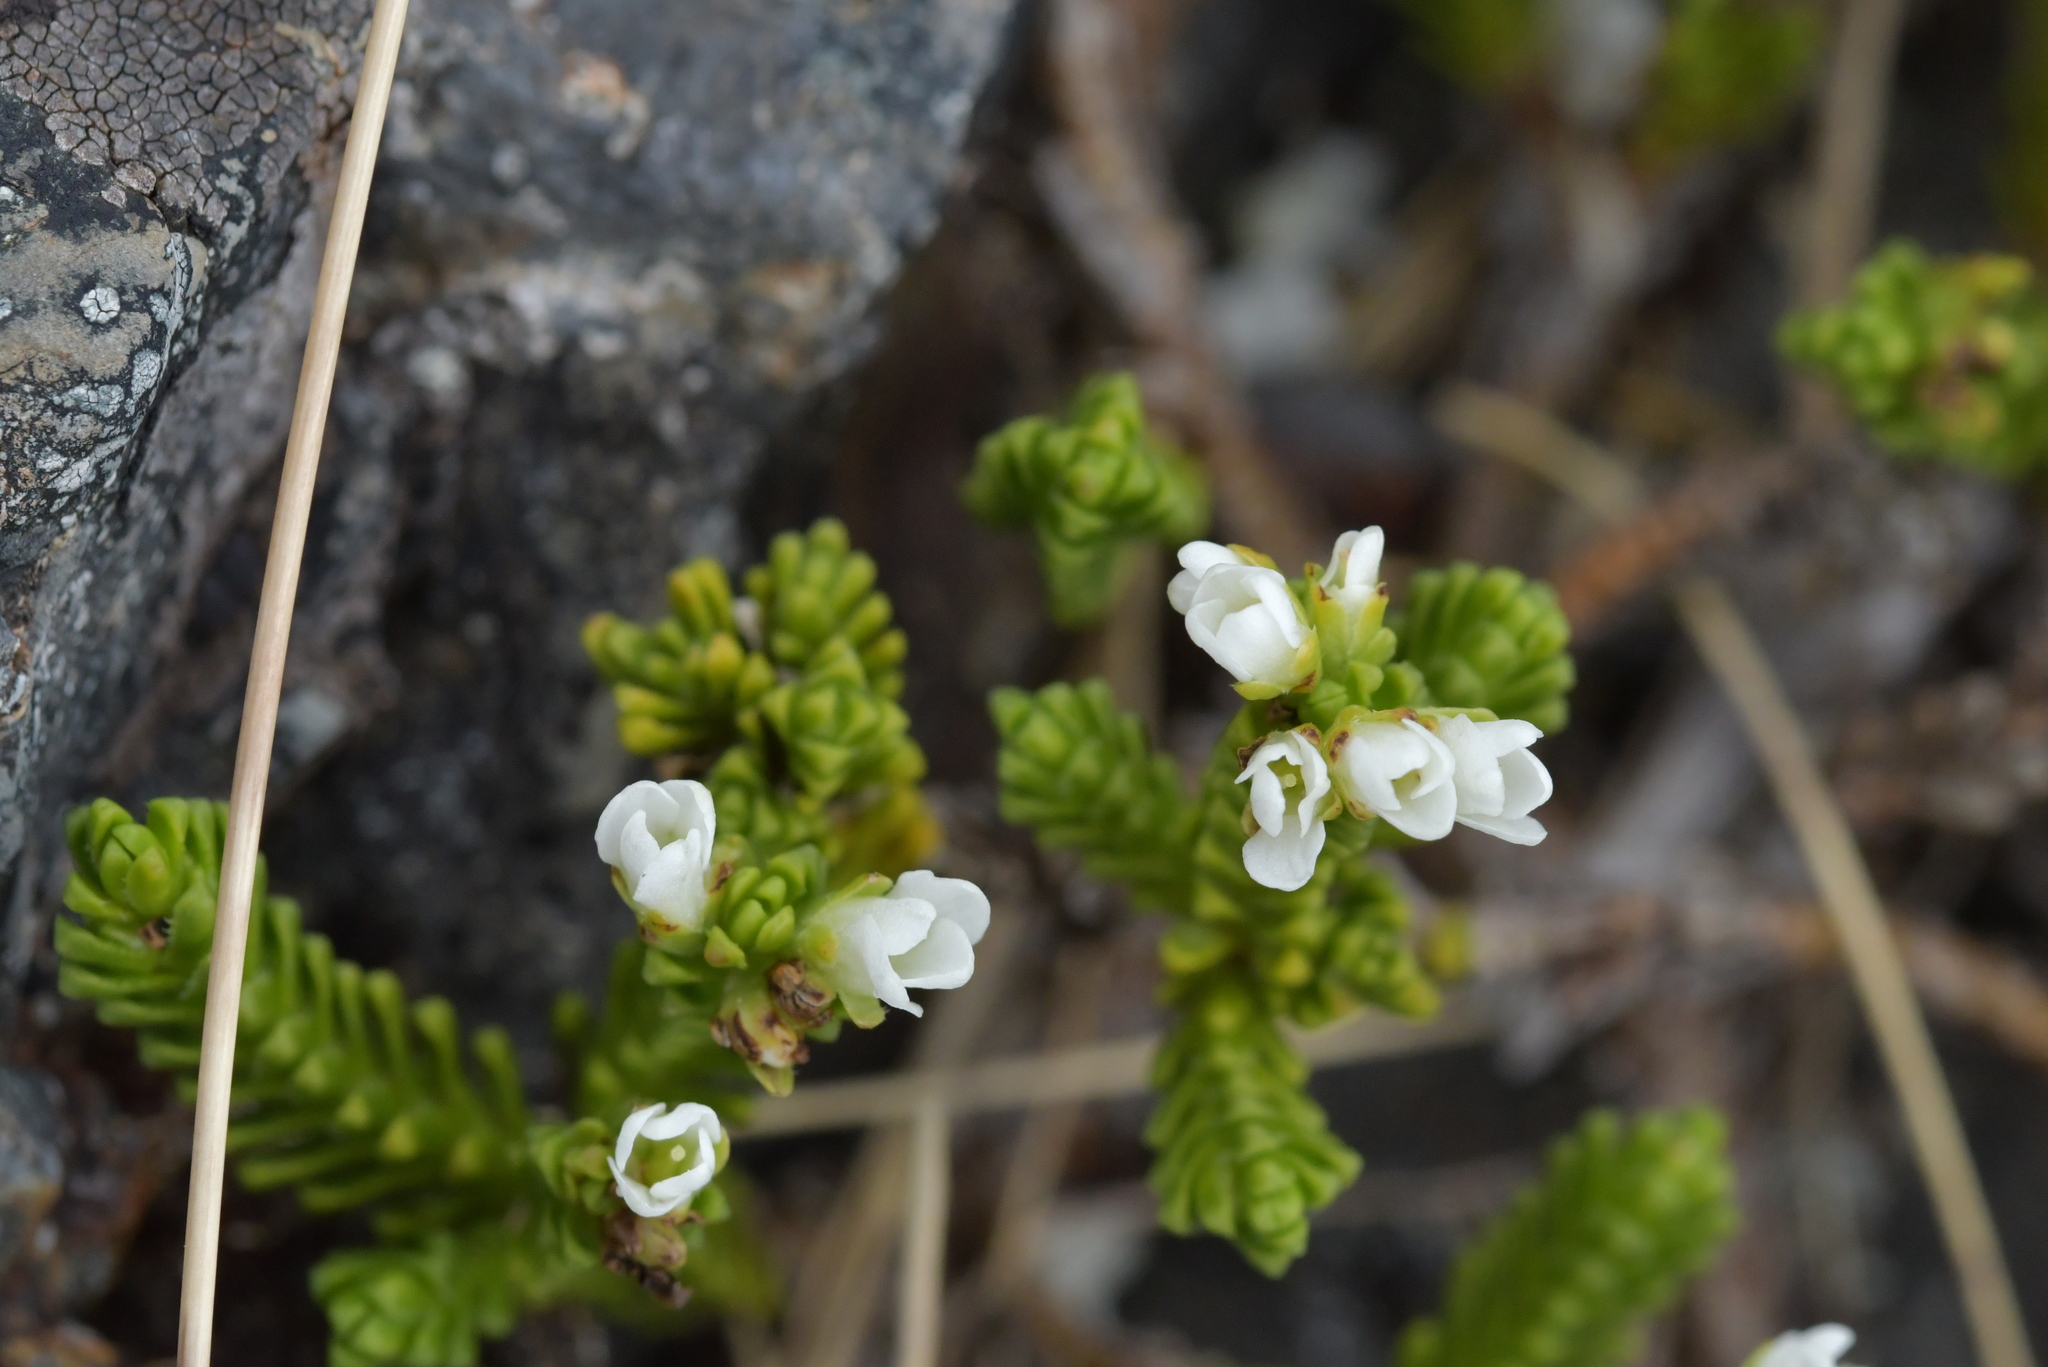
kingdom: Plantae
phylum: Tracheophyta
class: Magnoliopsida
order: Lamiales
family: Plantaginaceae
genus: Veronica
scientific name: Veronica hookeri
